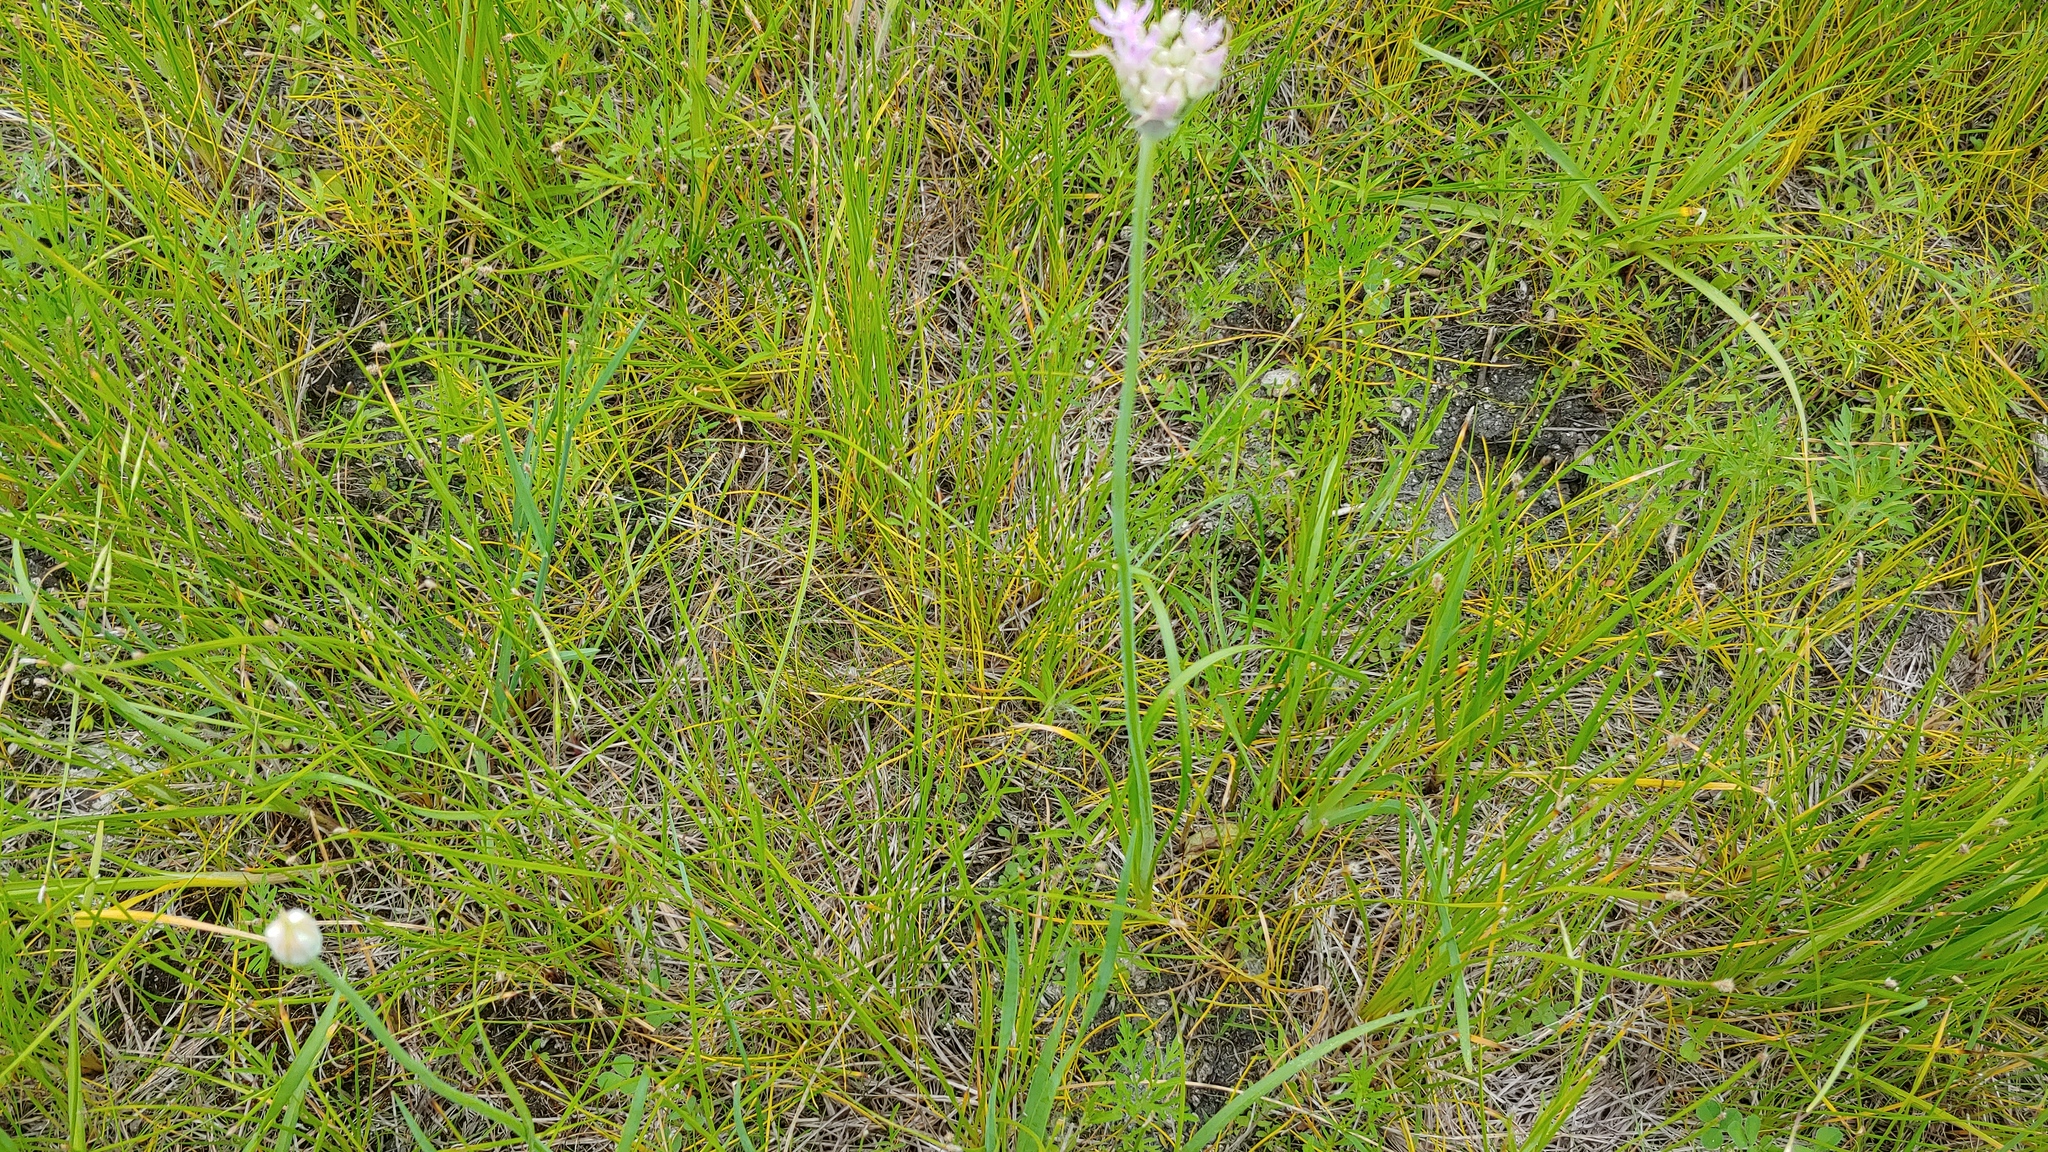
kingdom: Plantae
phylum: Tracheophyta
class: Liliopsida
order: Asparagales
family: Amaryllidaceae
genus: Allium
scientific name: Allium canadense
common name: Meadow garlic
